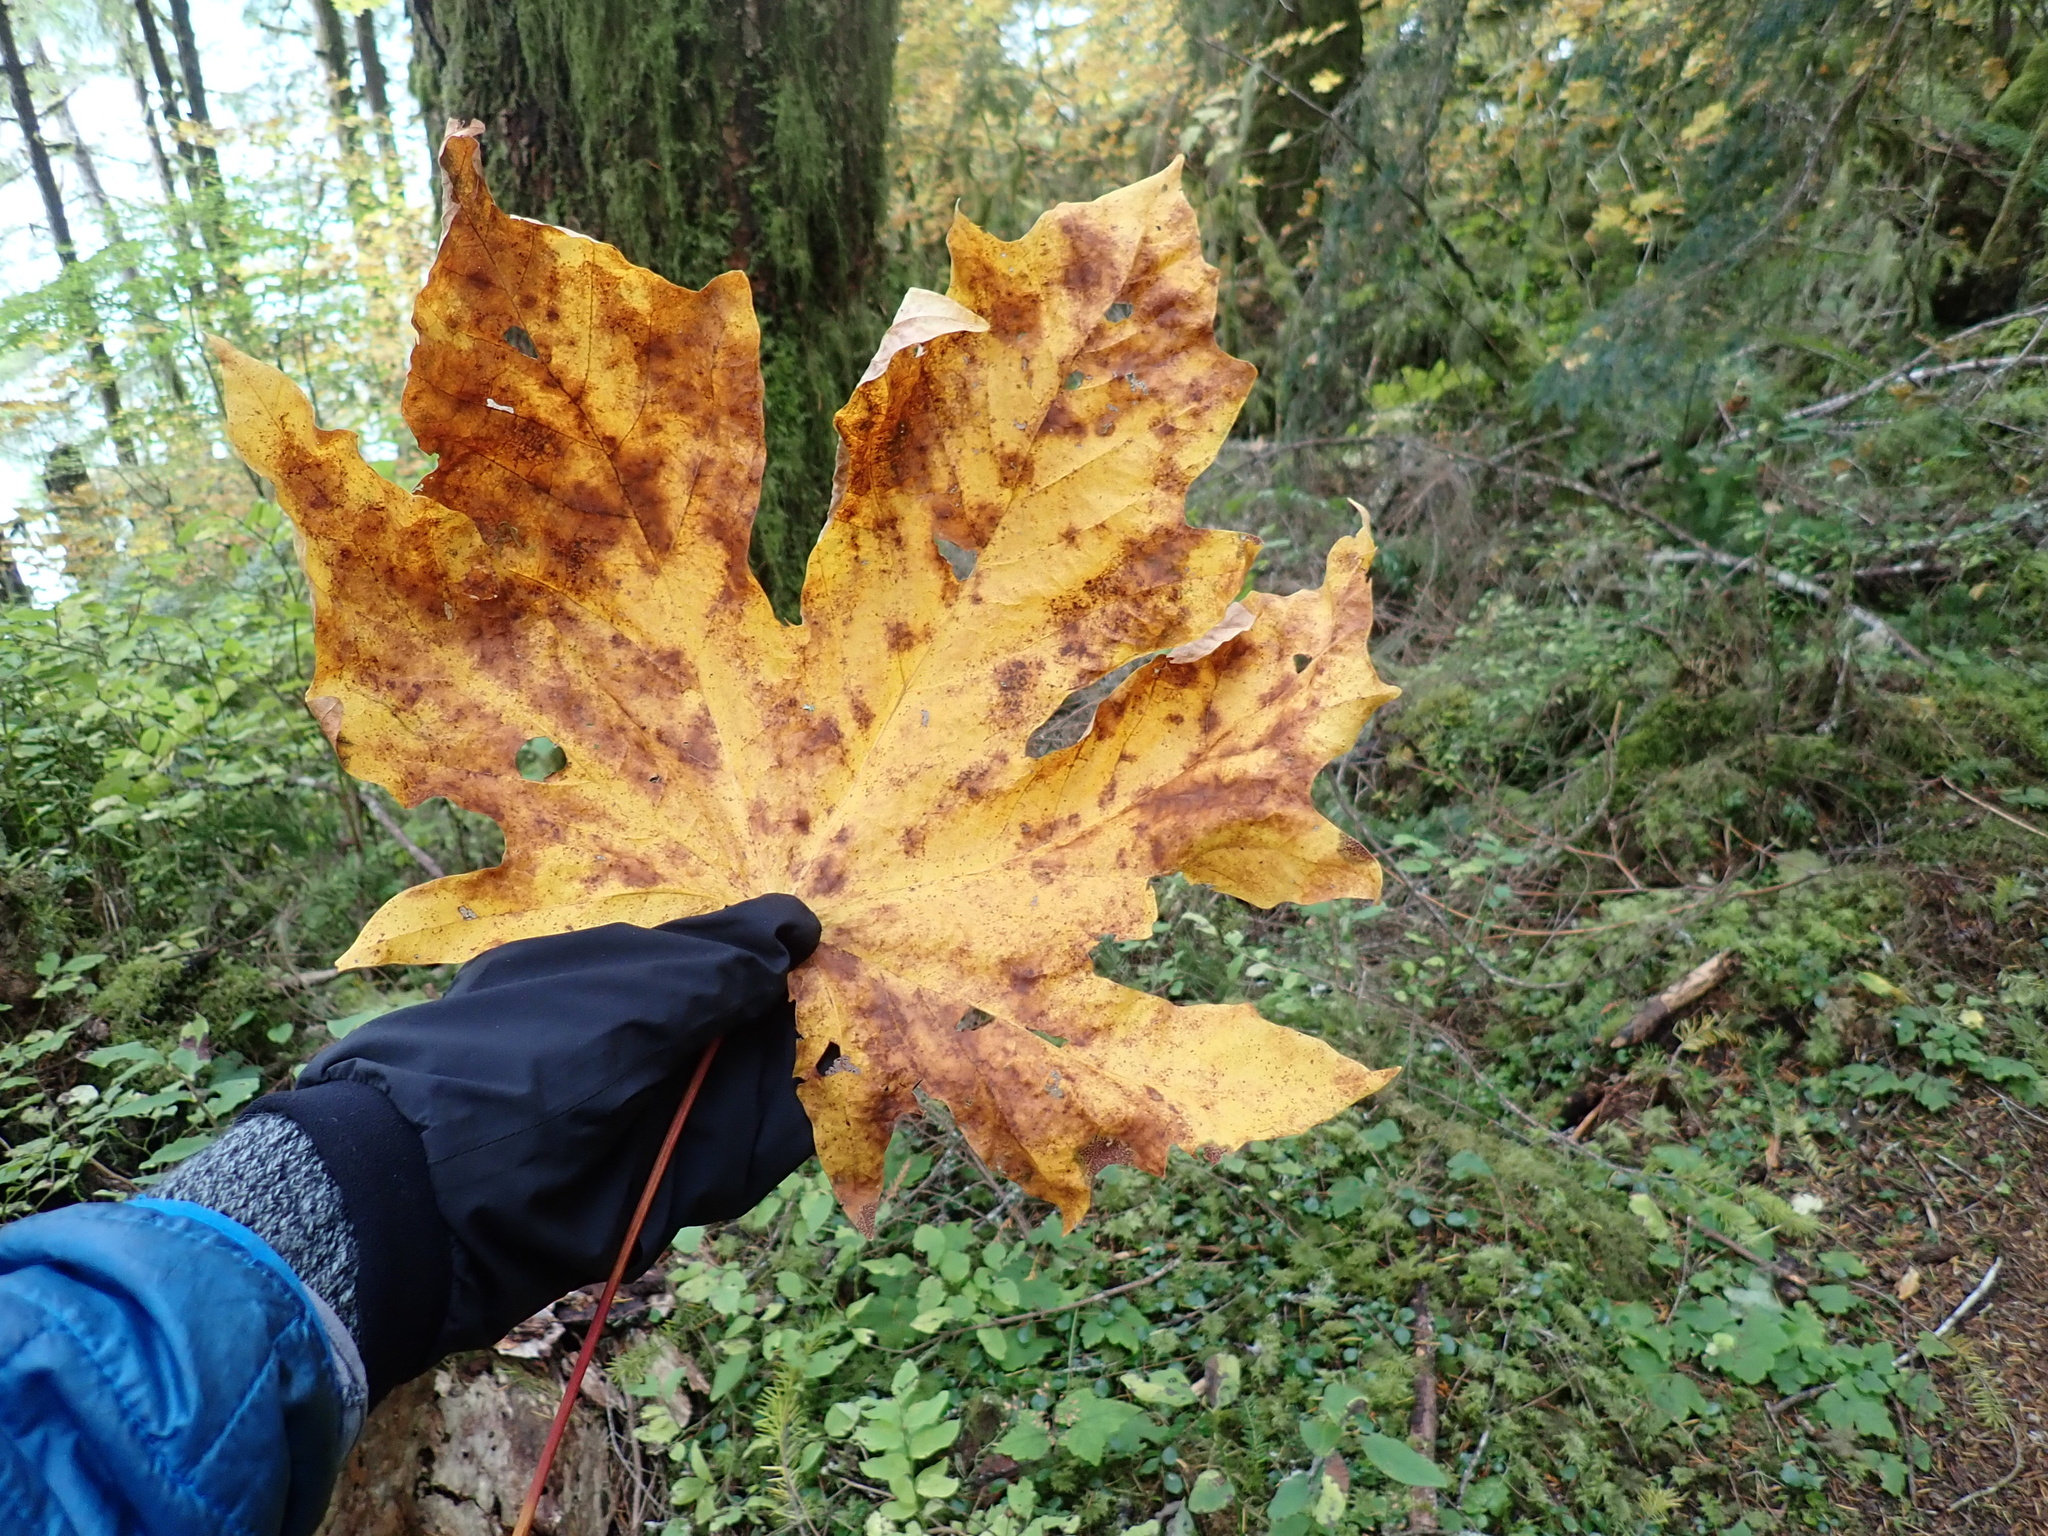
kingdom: Plantae
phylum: Tracheophyta
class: Magnoliopsida
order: Sapindales
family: Sapindaceae
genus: Acer
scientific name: Acer macrophyllum
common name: Oregon maple
